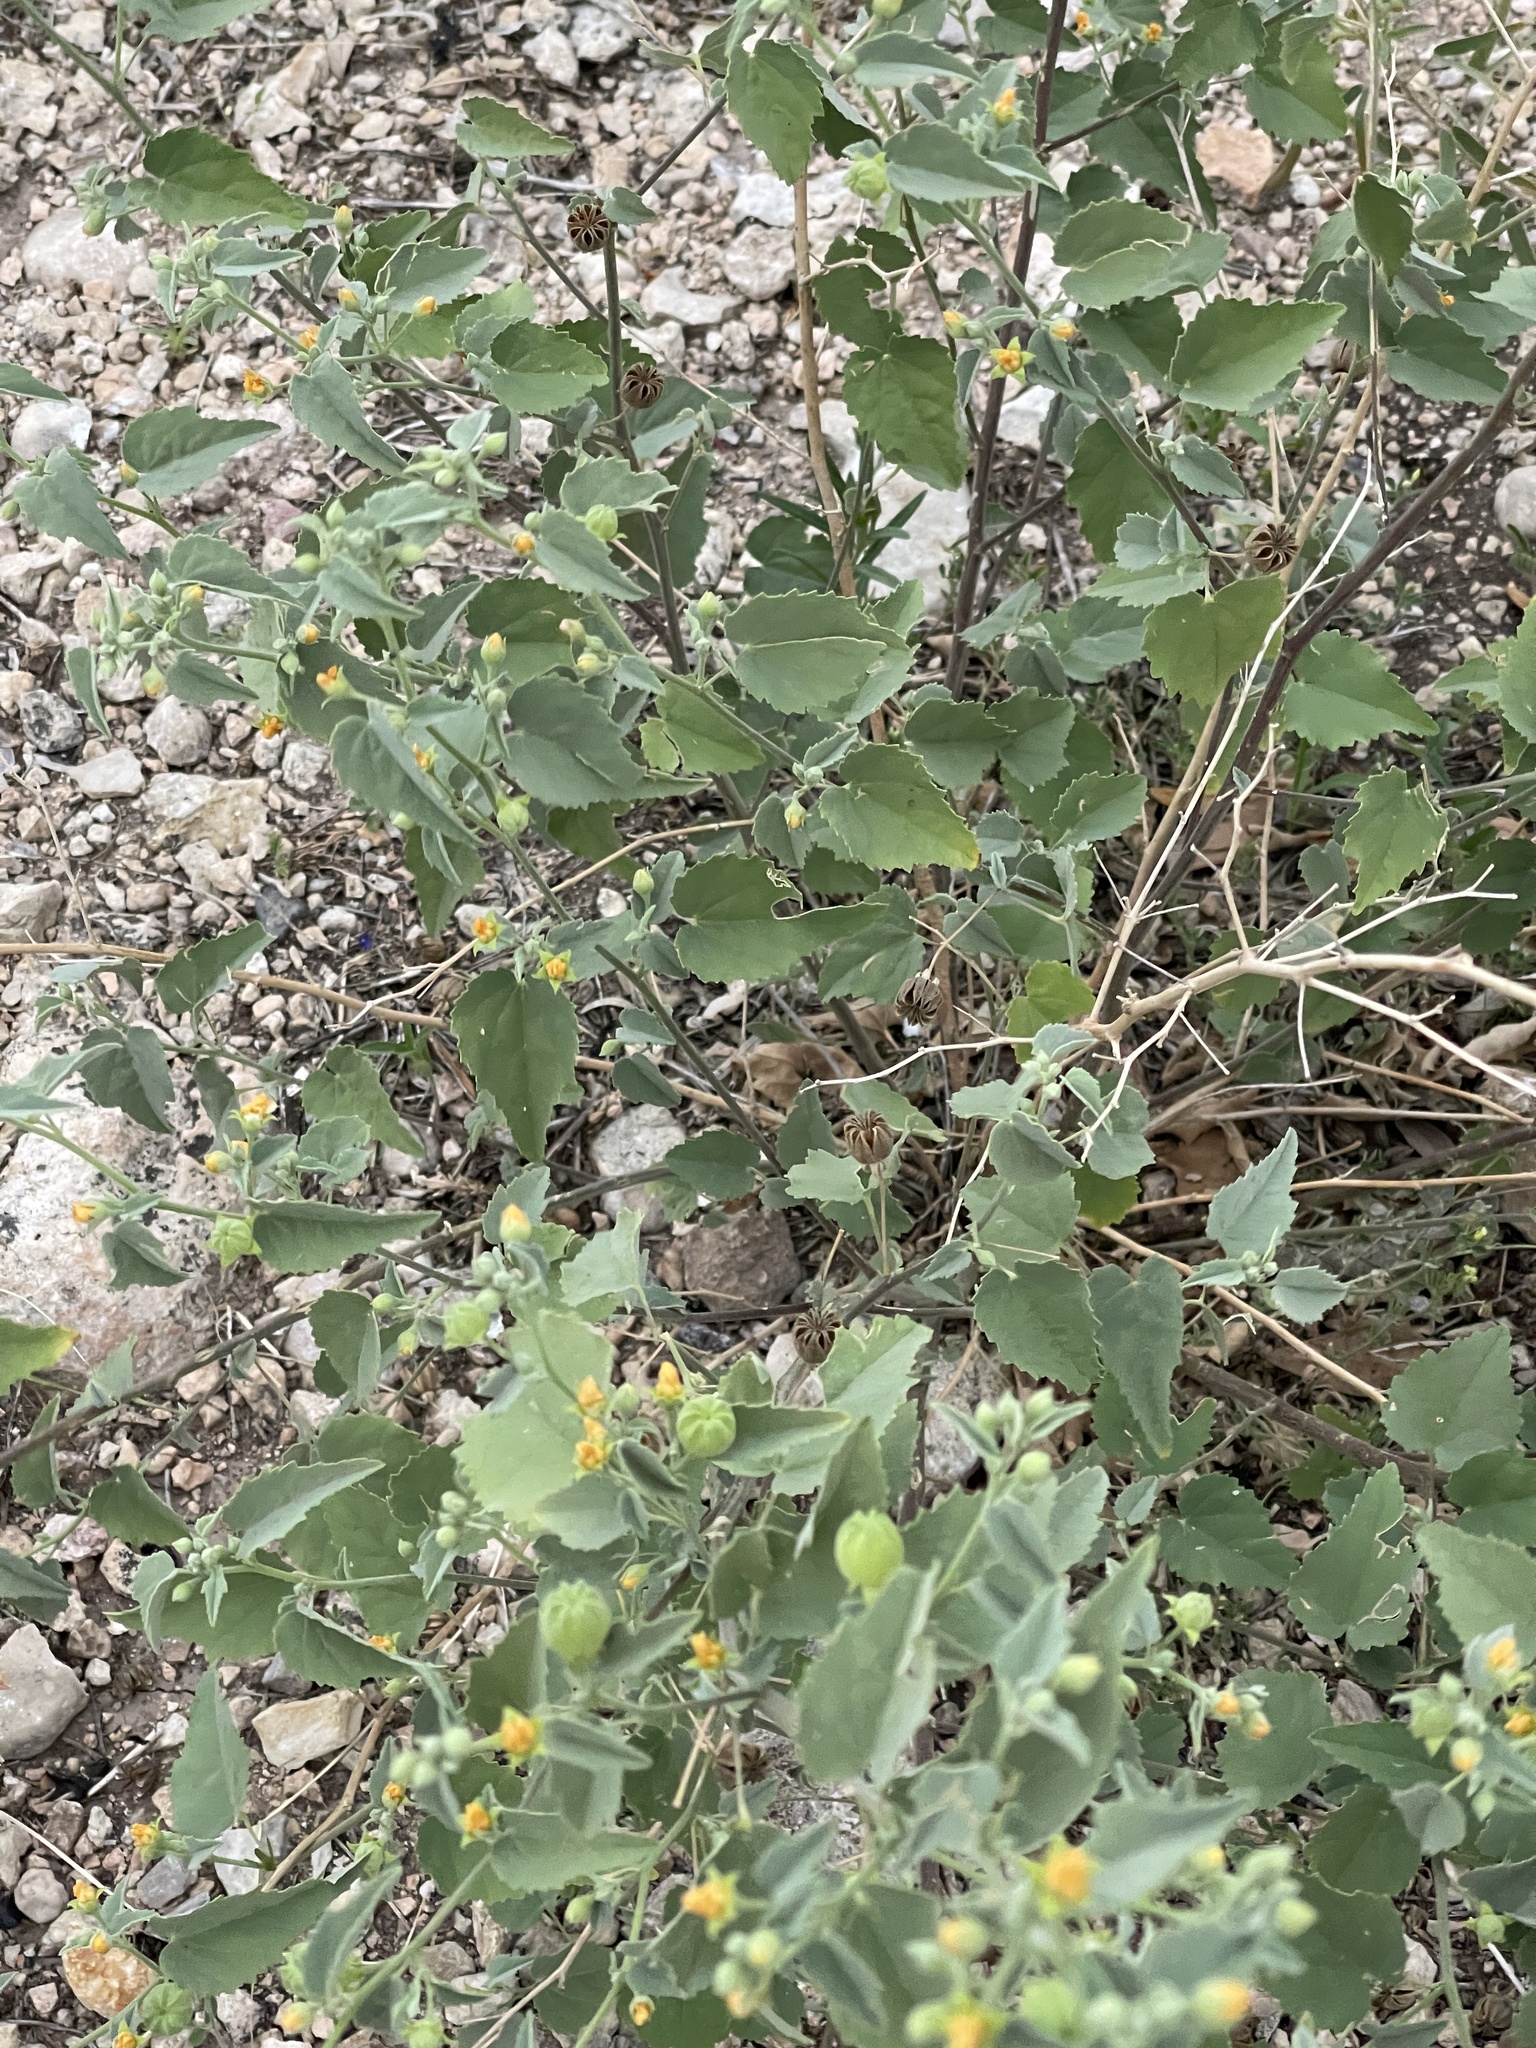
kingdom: Plantae
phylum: Tracheophyta
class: Magnoliopsida
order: Malvales
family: Malvaceae
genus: Abutilon
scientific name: Abutilon fruticosum
